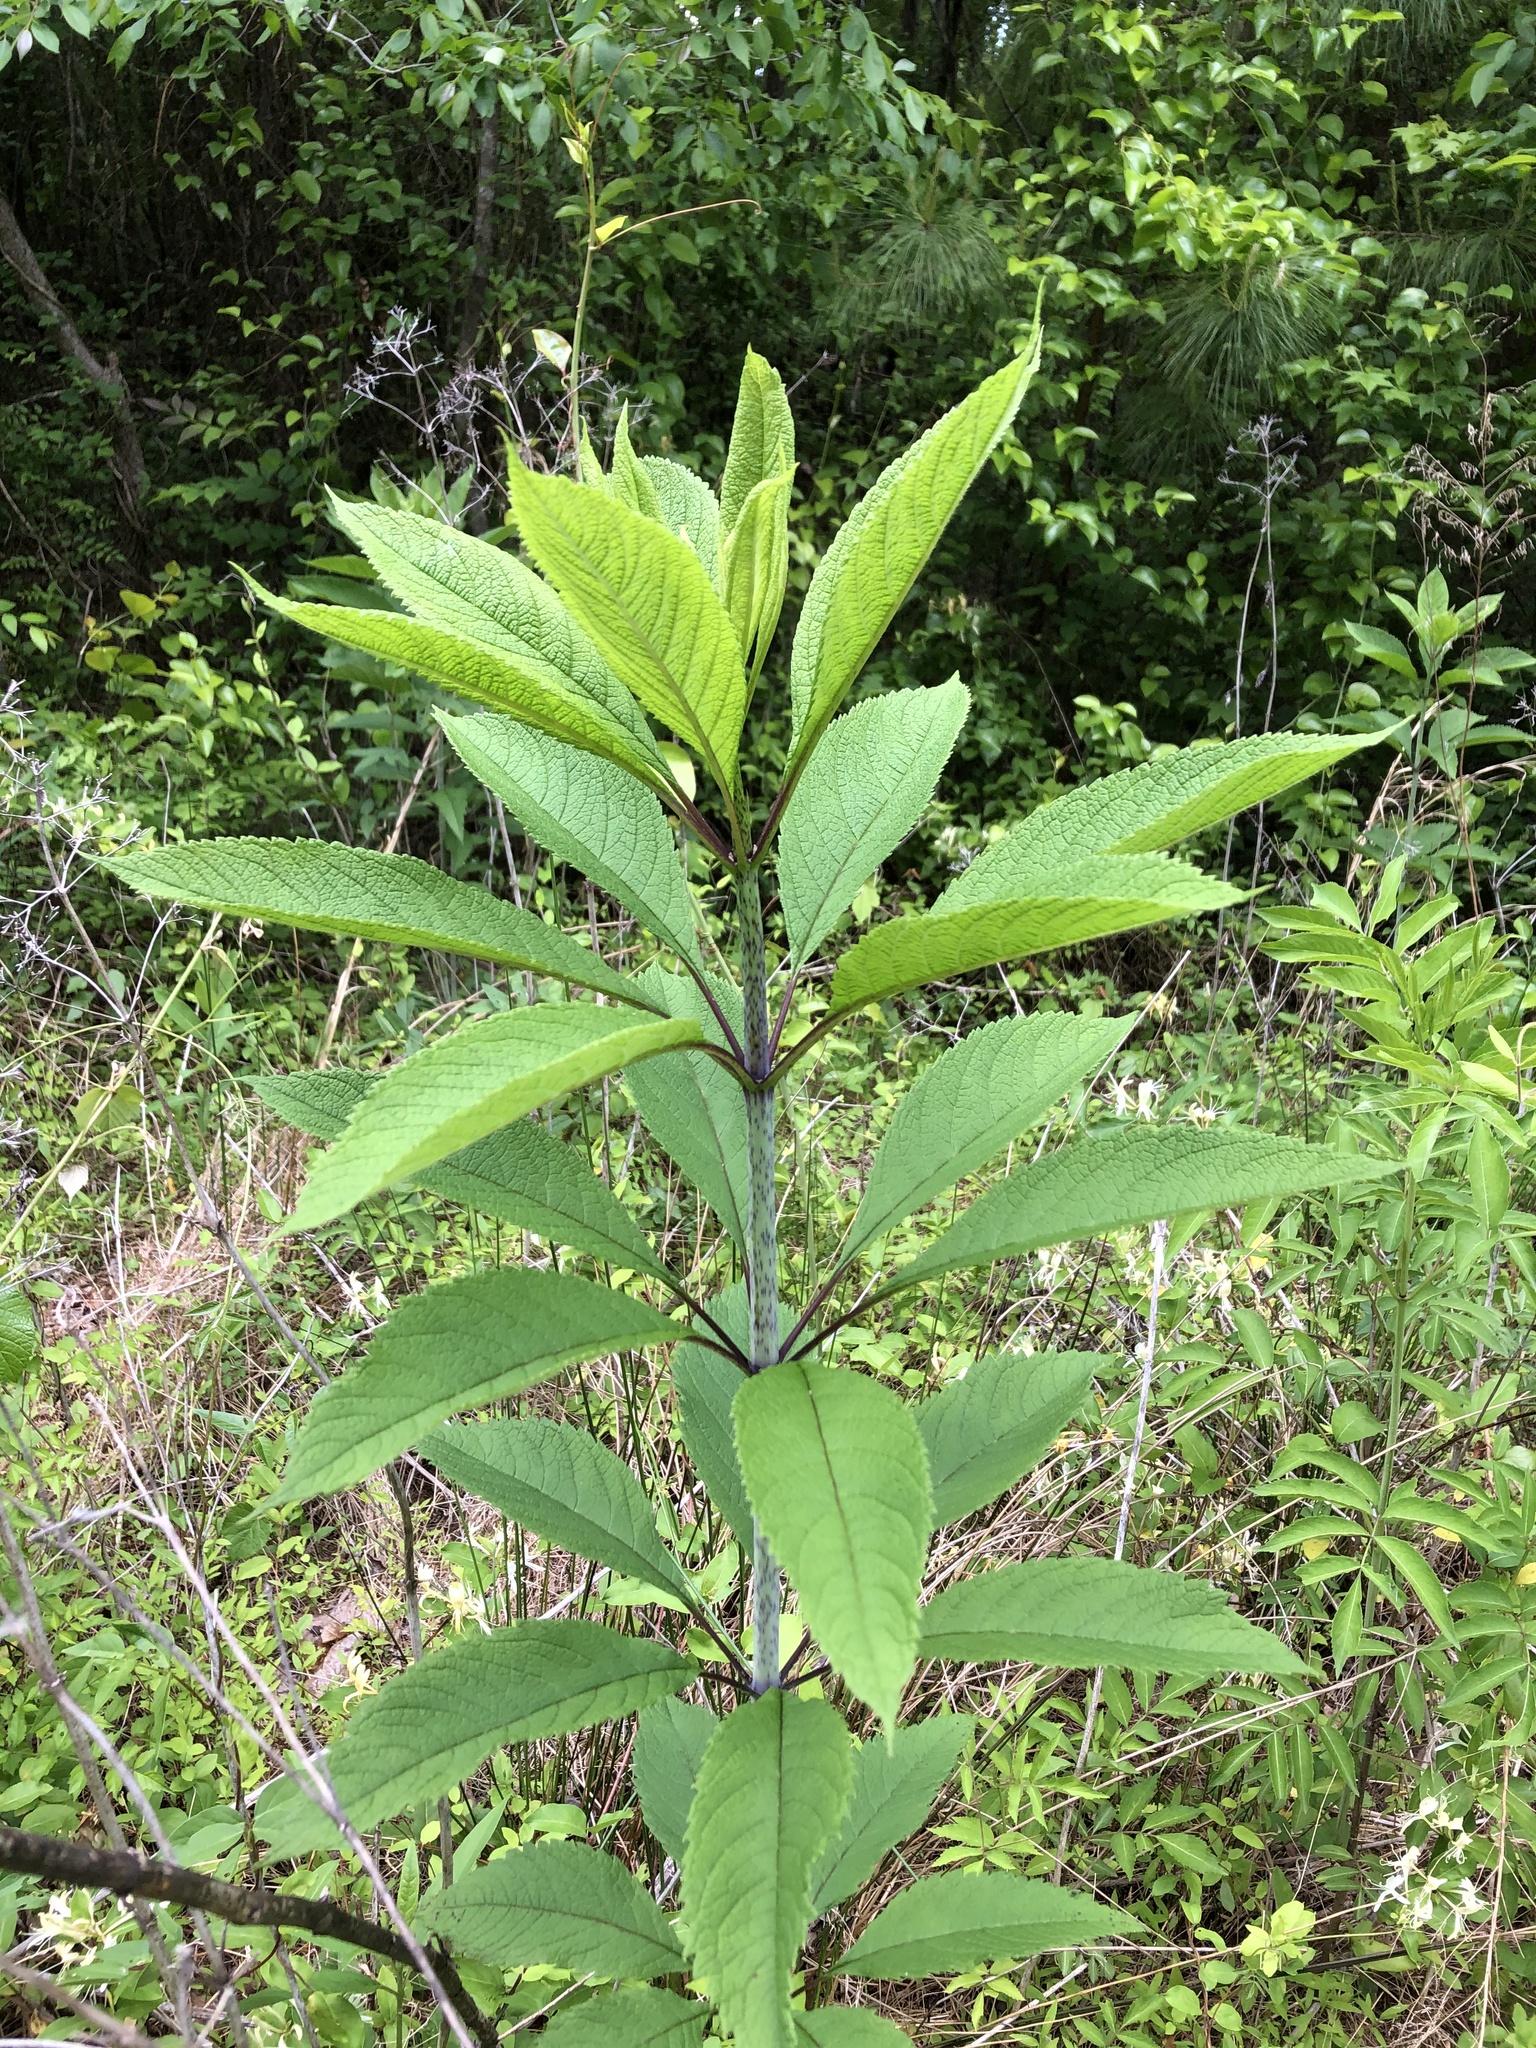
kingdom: Plantae
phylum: Tracheophyta
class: Magnoliopsida
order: Asterales
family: Asteraceae
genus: Eutrochium
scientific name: Eutrochium fistulosum
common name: Trumpetweed
